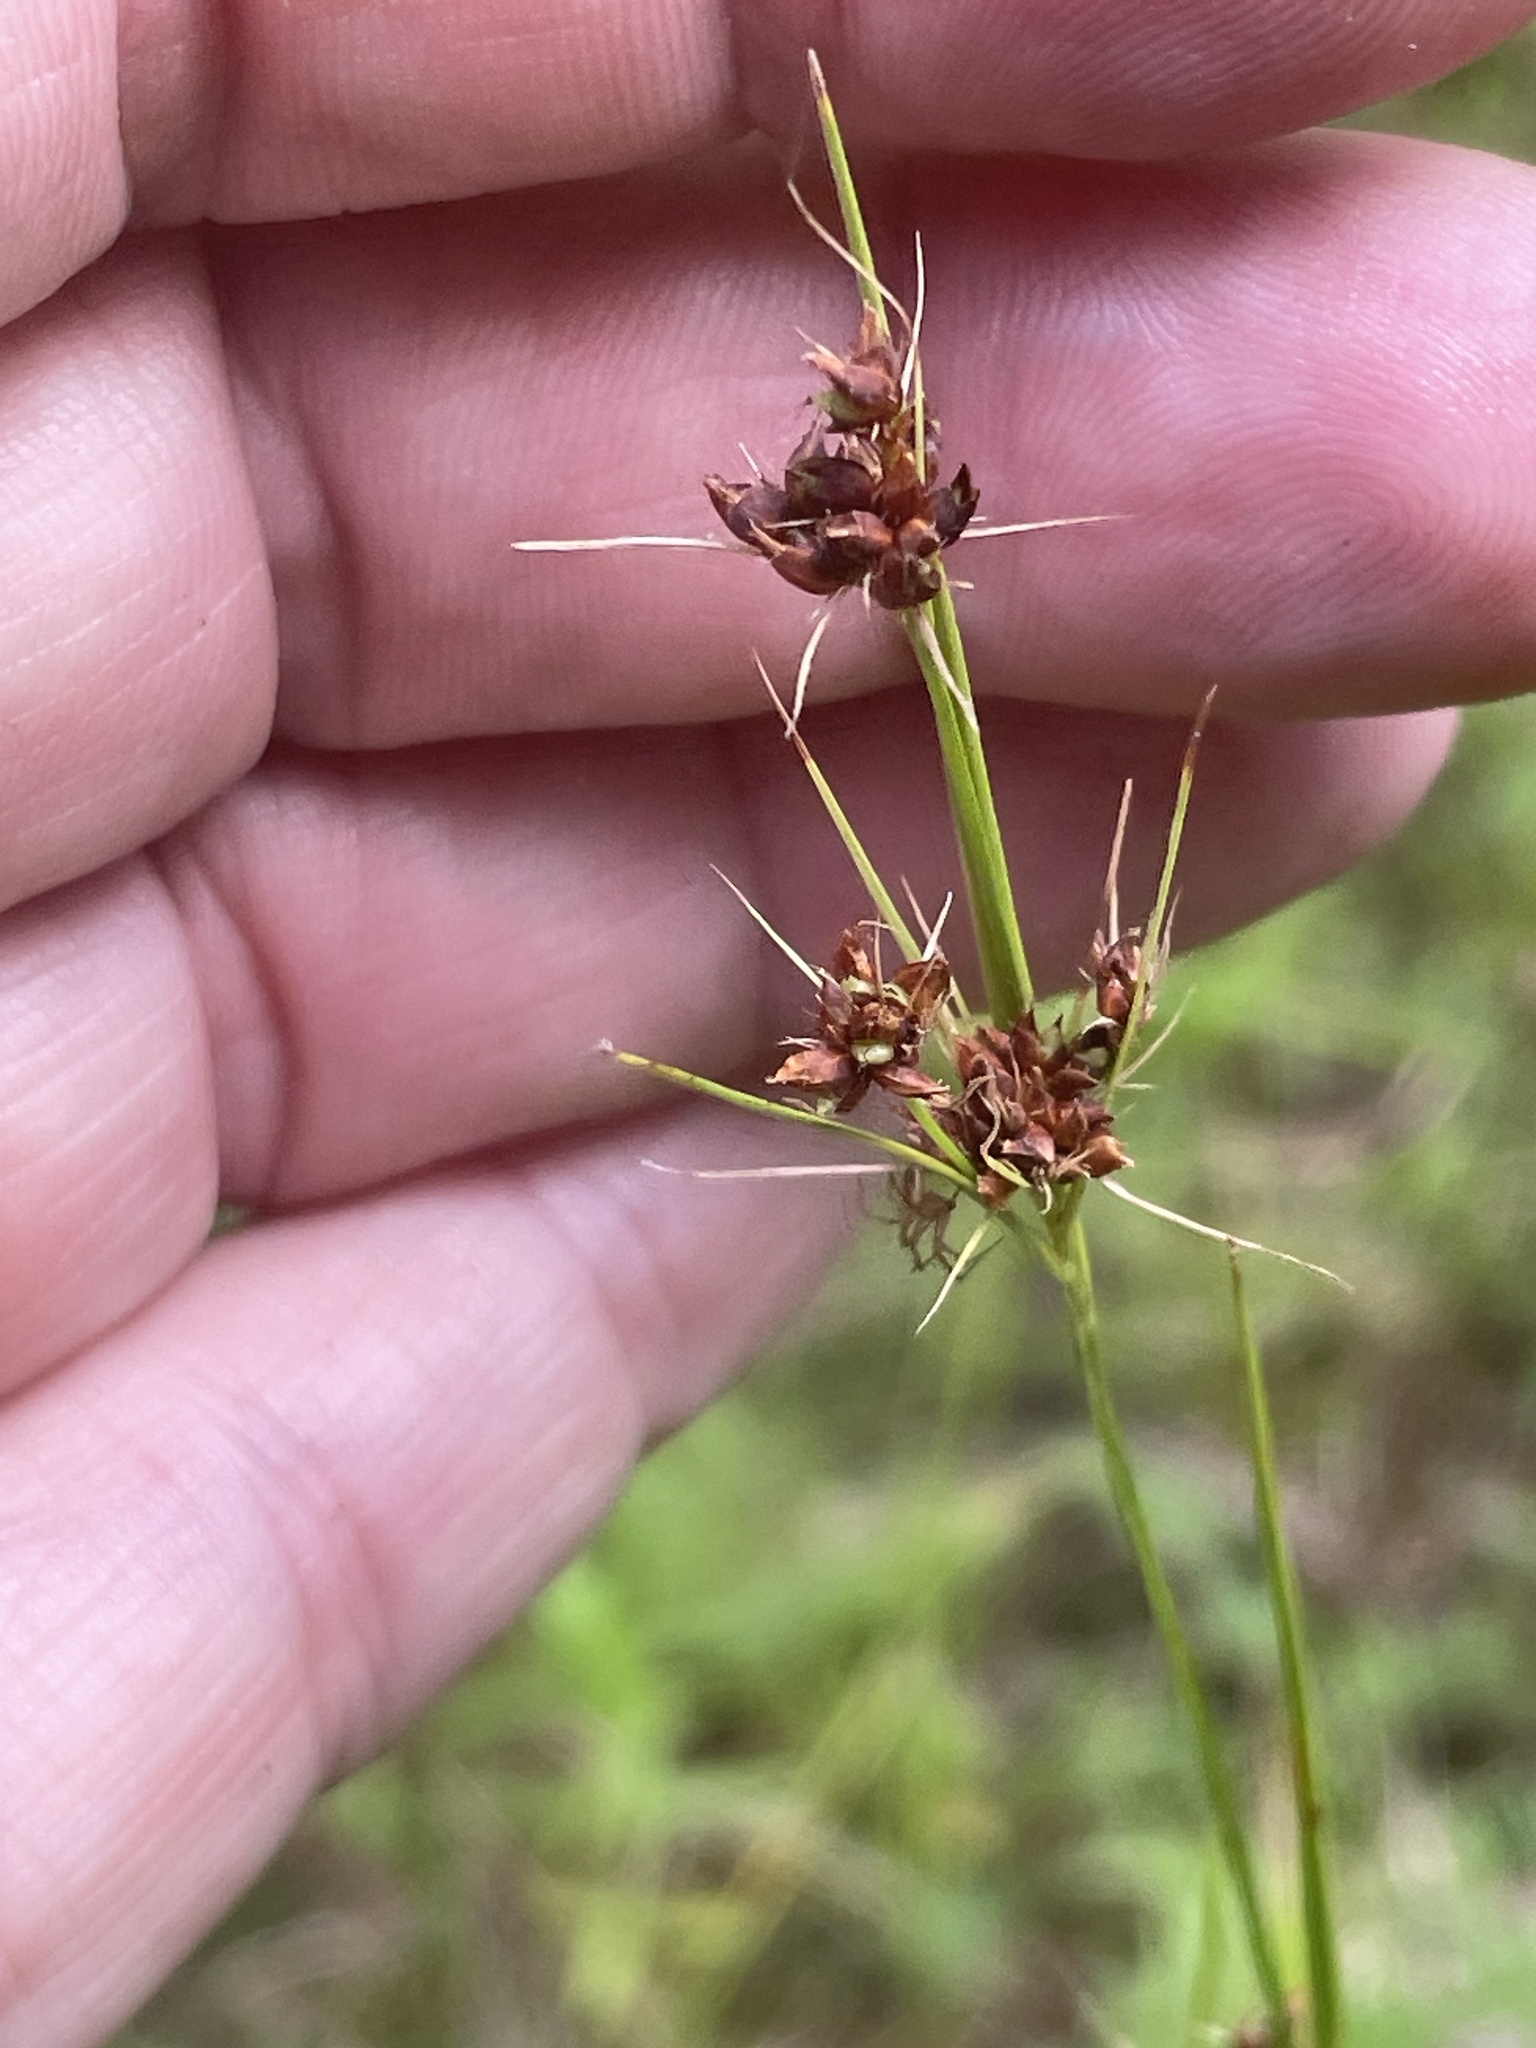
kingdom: Plantae
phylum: Tracheophyta
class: Liliopsida
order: Poales
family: Cyperaceae
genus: Rhynchospora
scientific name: Rhynchospora recognita
